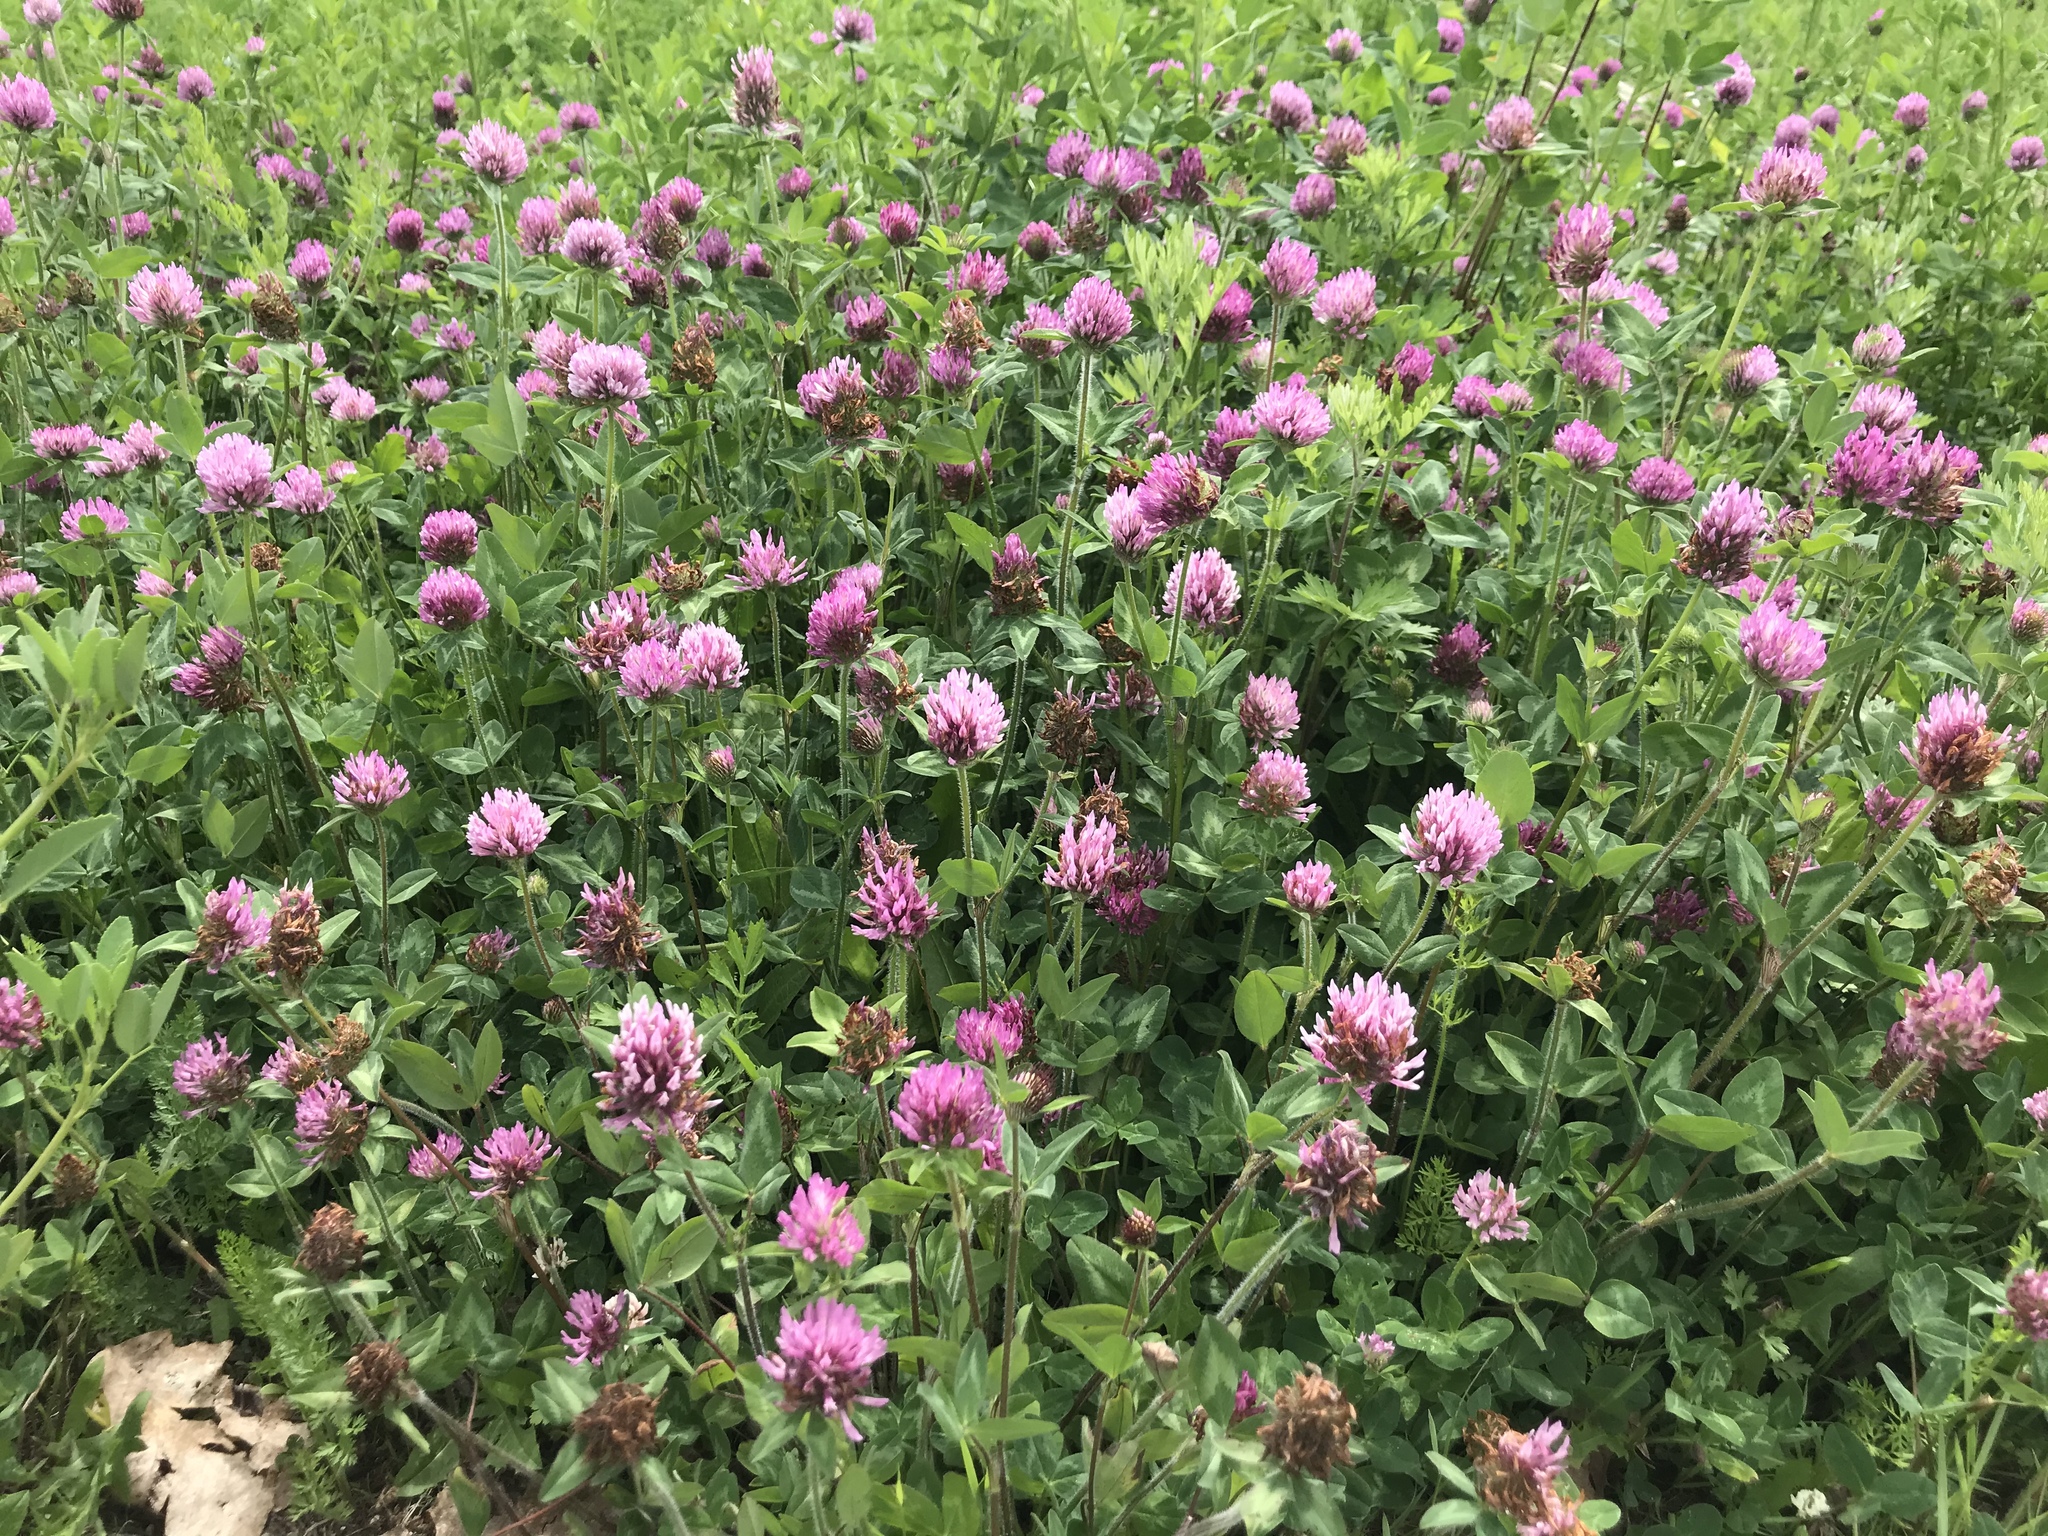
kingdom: Plantae
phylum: Tracheophyta
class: Magnoliopsida
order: Fabales
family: Fabaceae
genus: Trifolium
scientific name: Trifolium pratense
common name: Red clover
